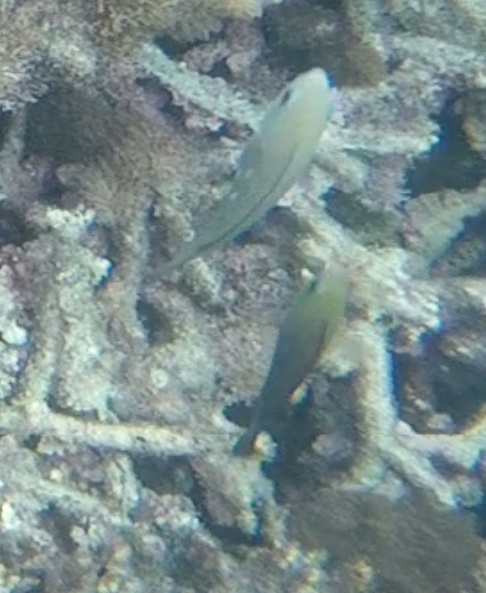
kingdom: Animalia
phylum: Chordata
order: Perciformes
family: Scaridae
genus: Scarus
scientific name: Scarus psittacus
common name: Palenose parrotfish
